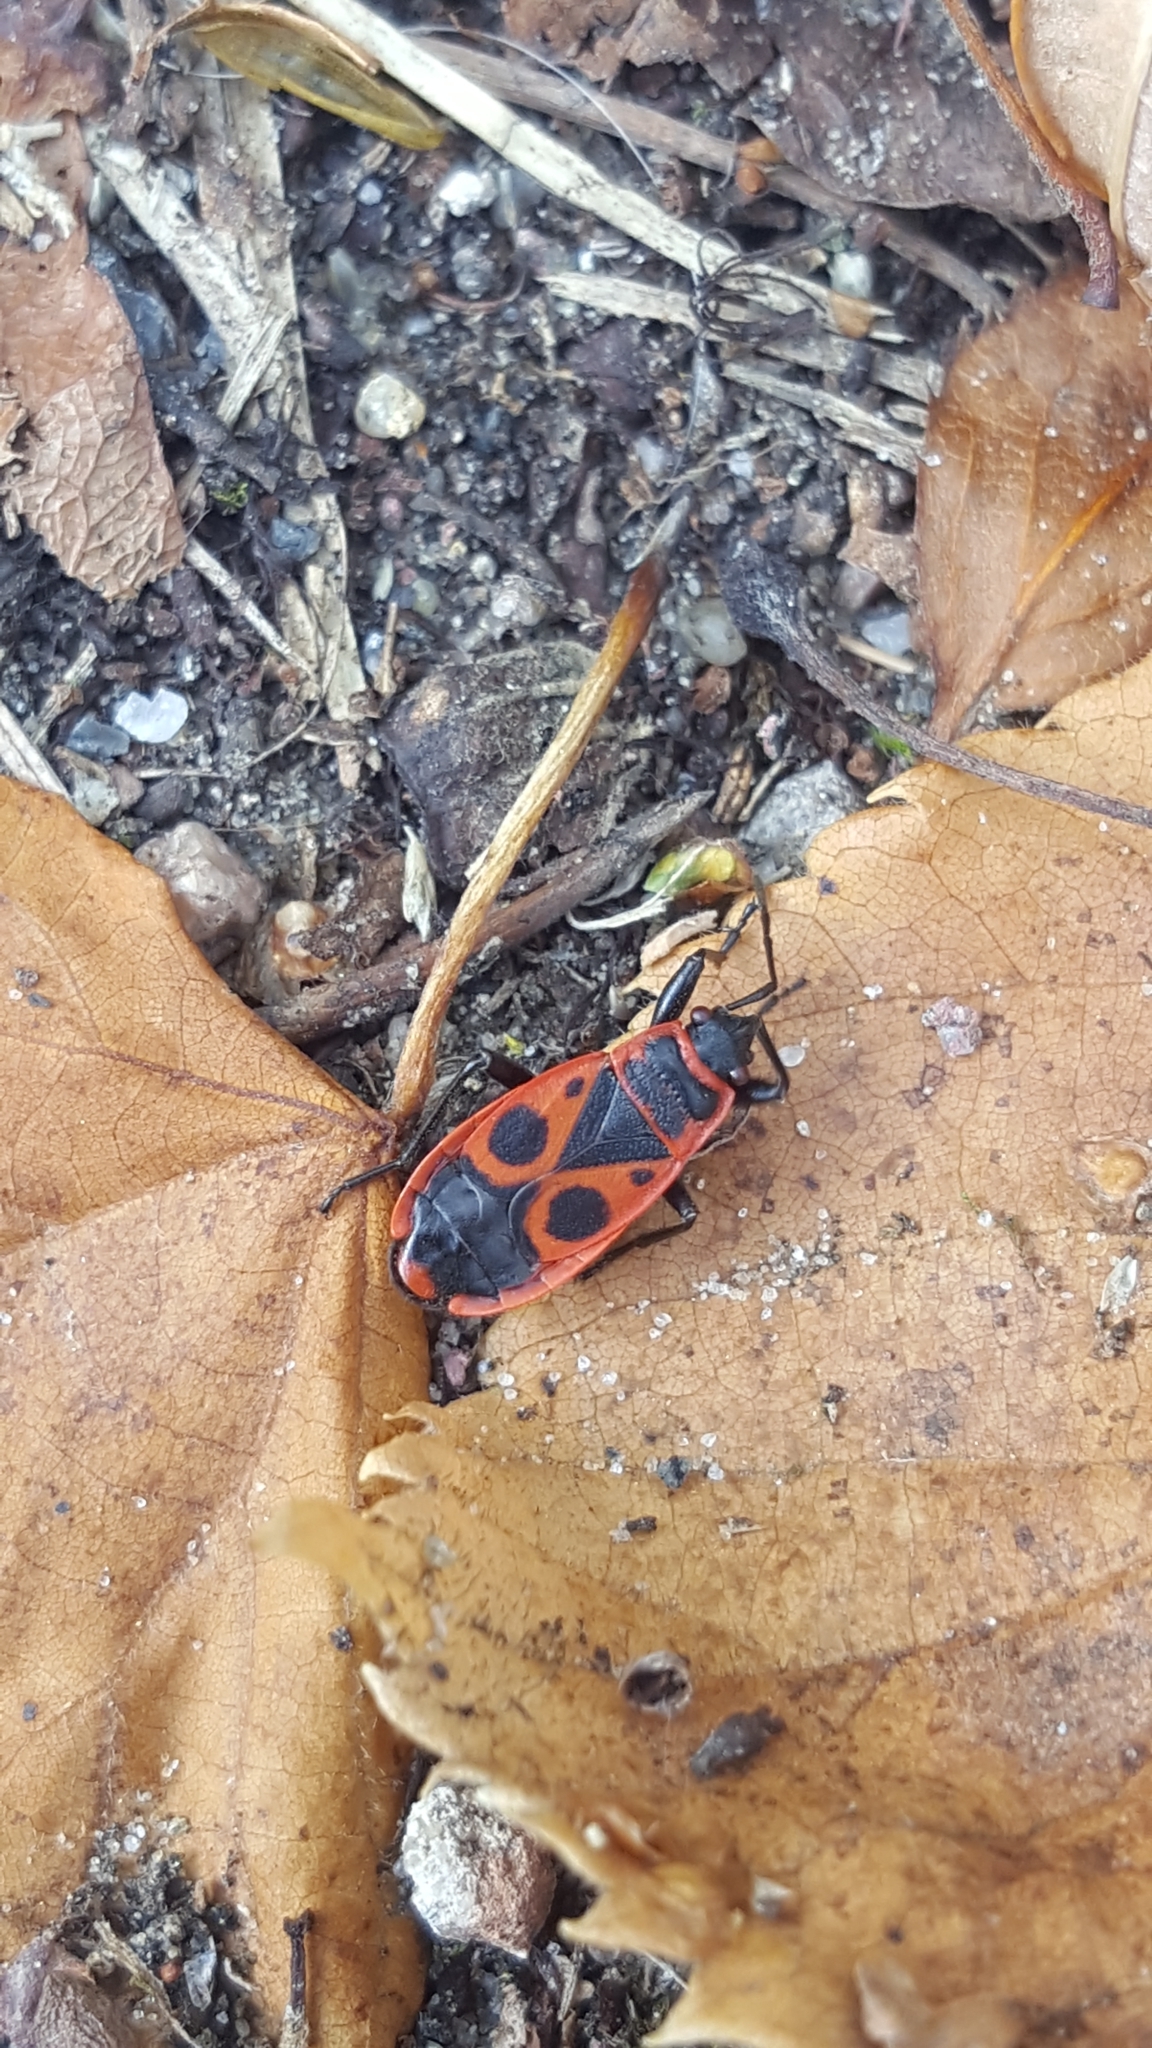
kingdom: Animalia
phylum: Arthropoda
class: Insecta
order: Hemiptera
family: Pyrrhocoridae
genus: Pyrrhocoris
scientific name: Pyrrhocoris apterus
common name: Firebug
